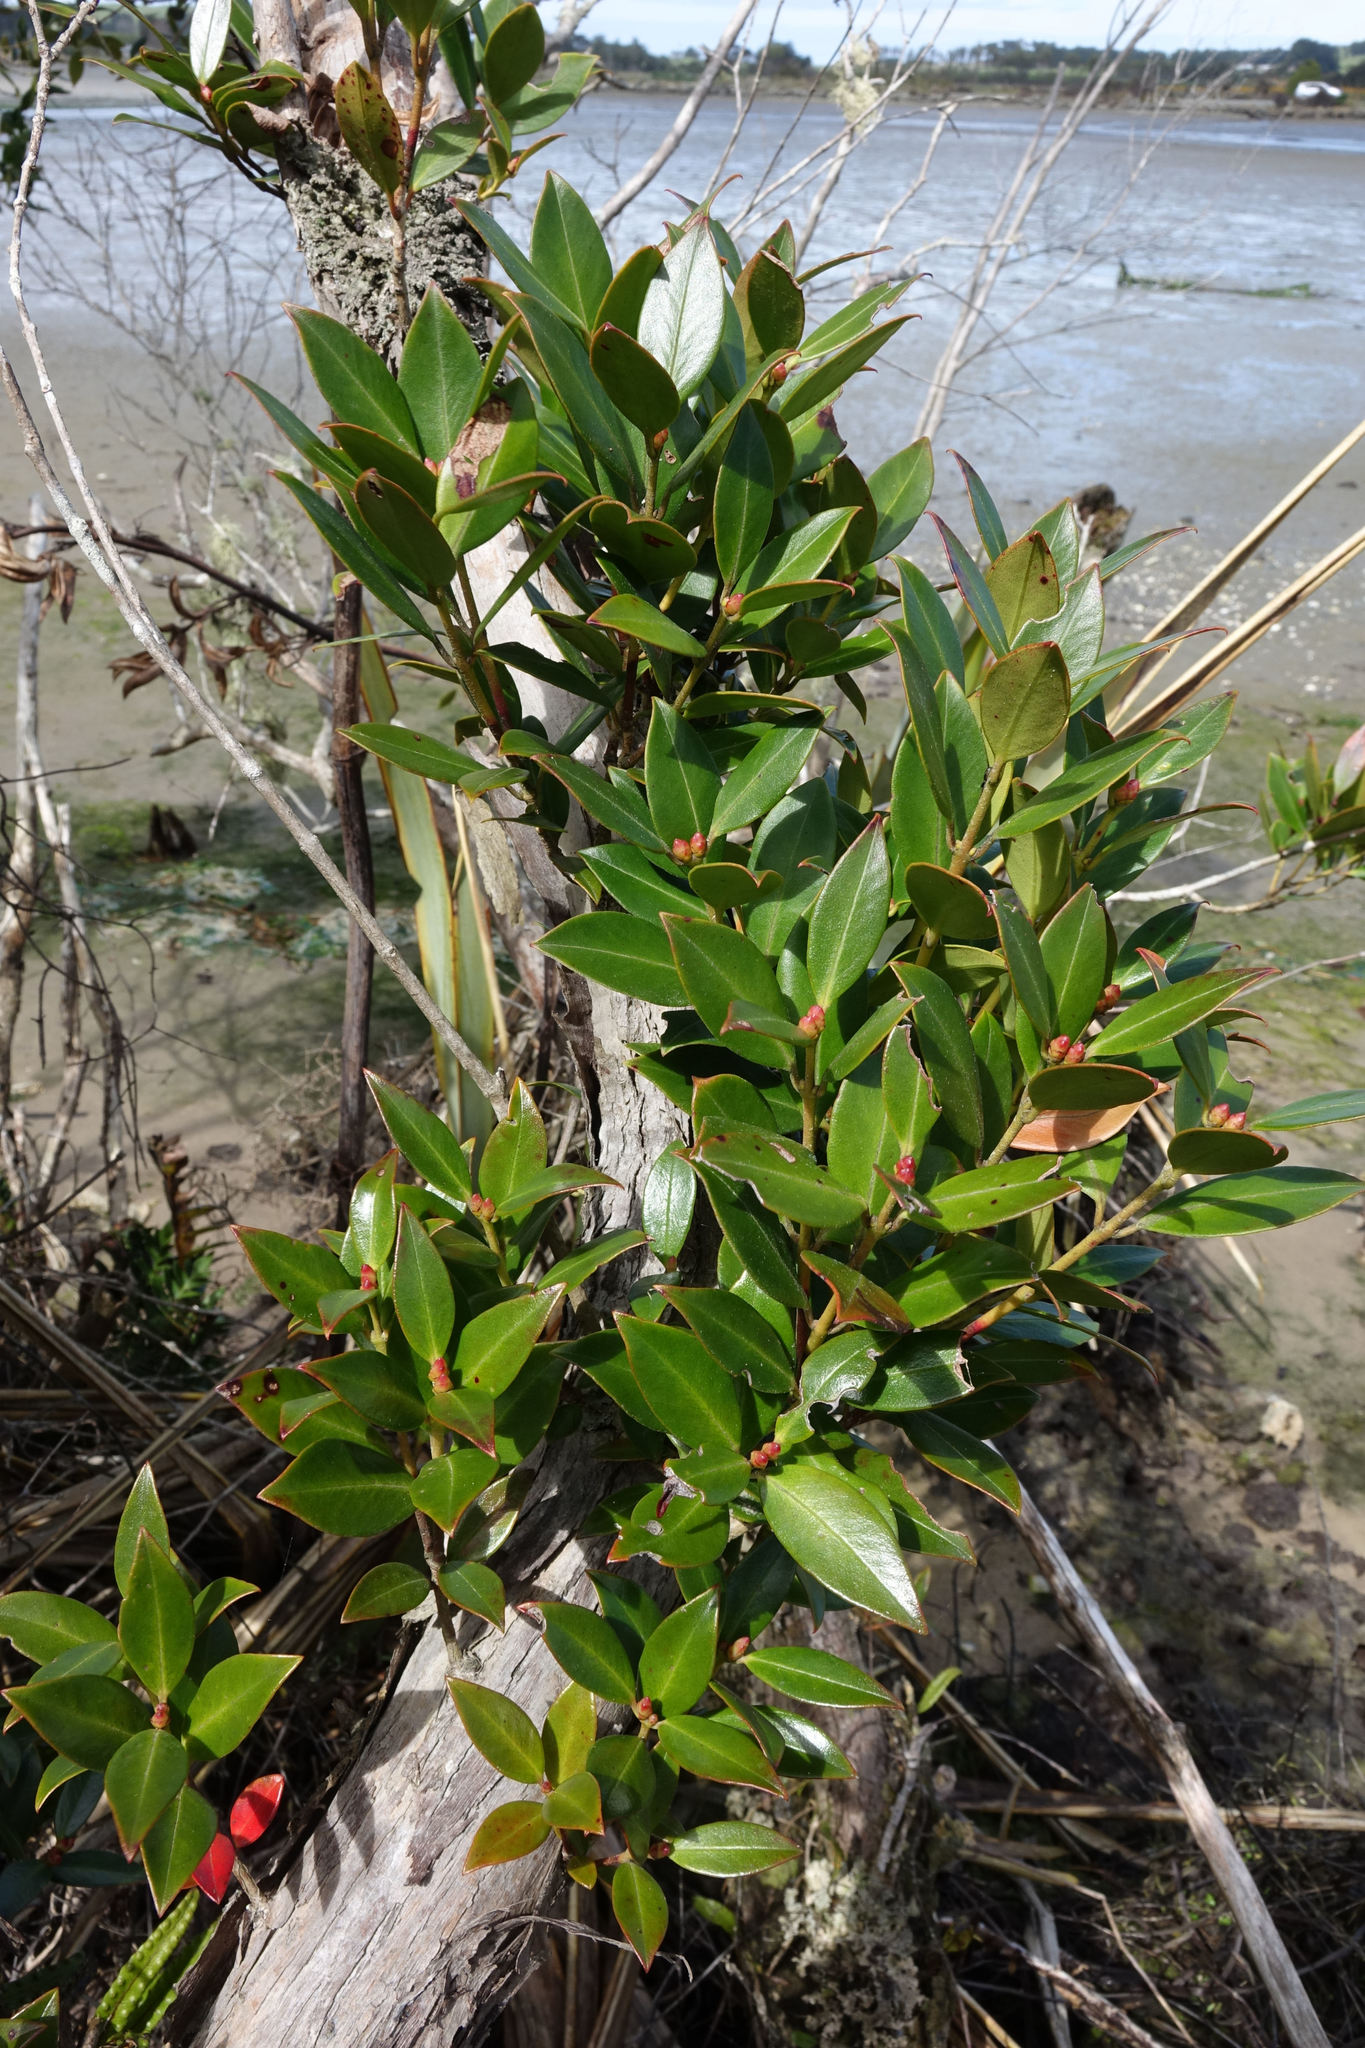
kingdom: Plantae
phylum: Tracheophyta
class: Magnoliopsida
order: Myrtales
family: Myrtaceae
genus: Metrosideros
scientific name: Metrosideros umbellata
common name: Southern rata
